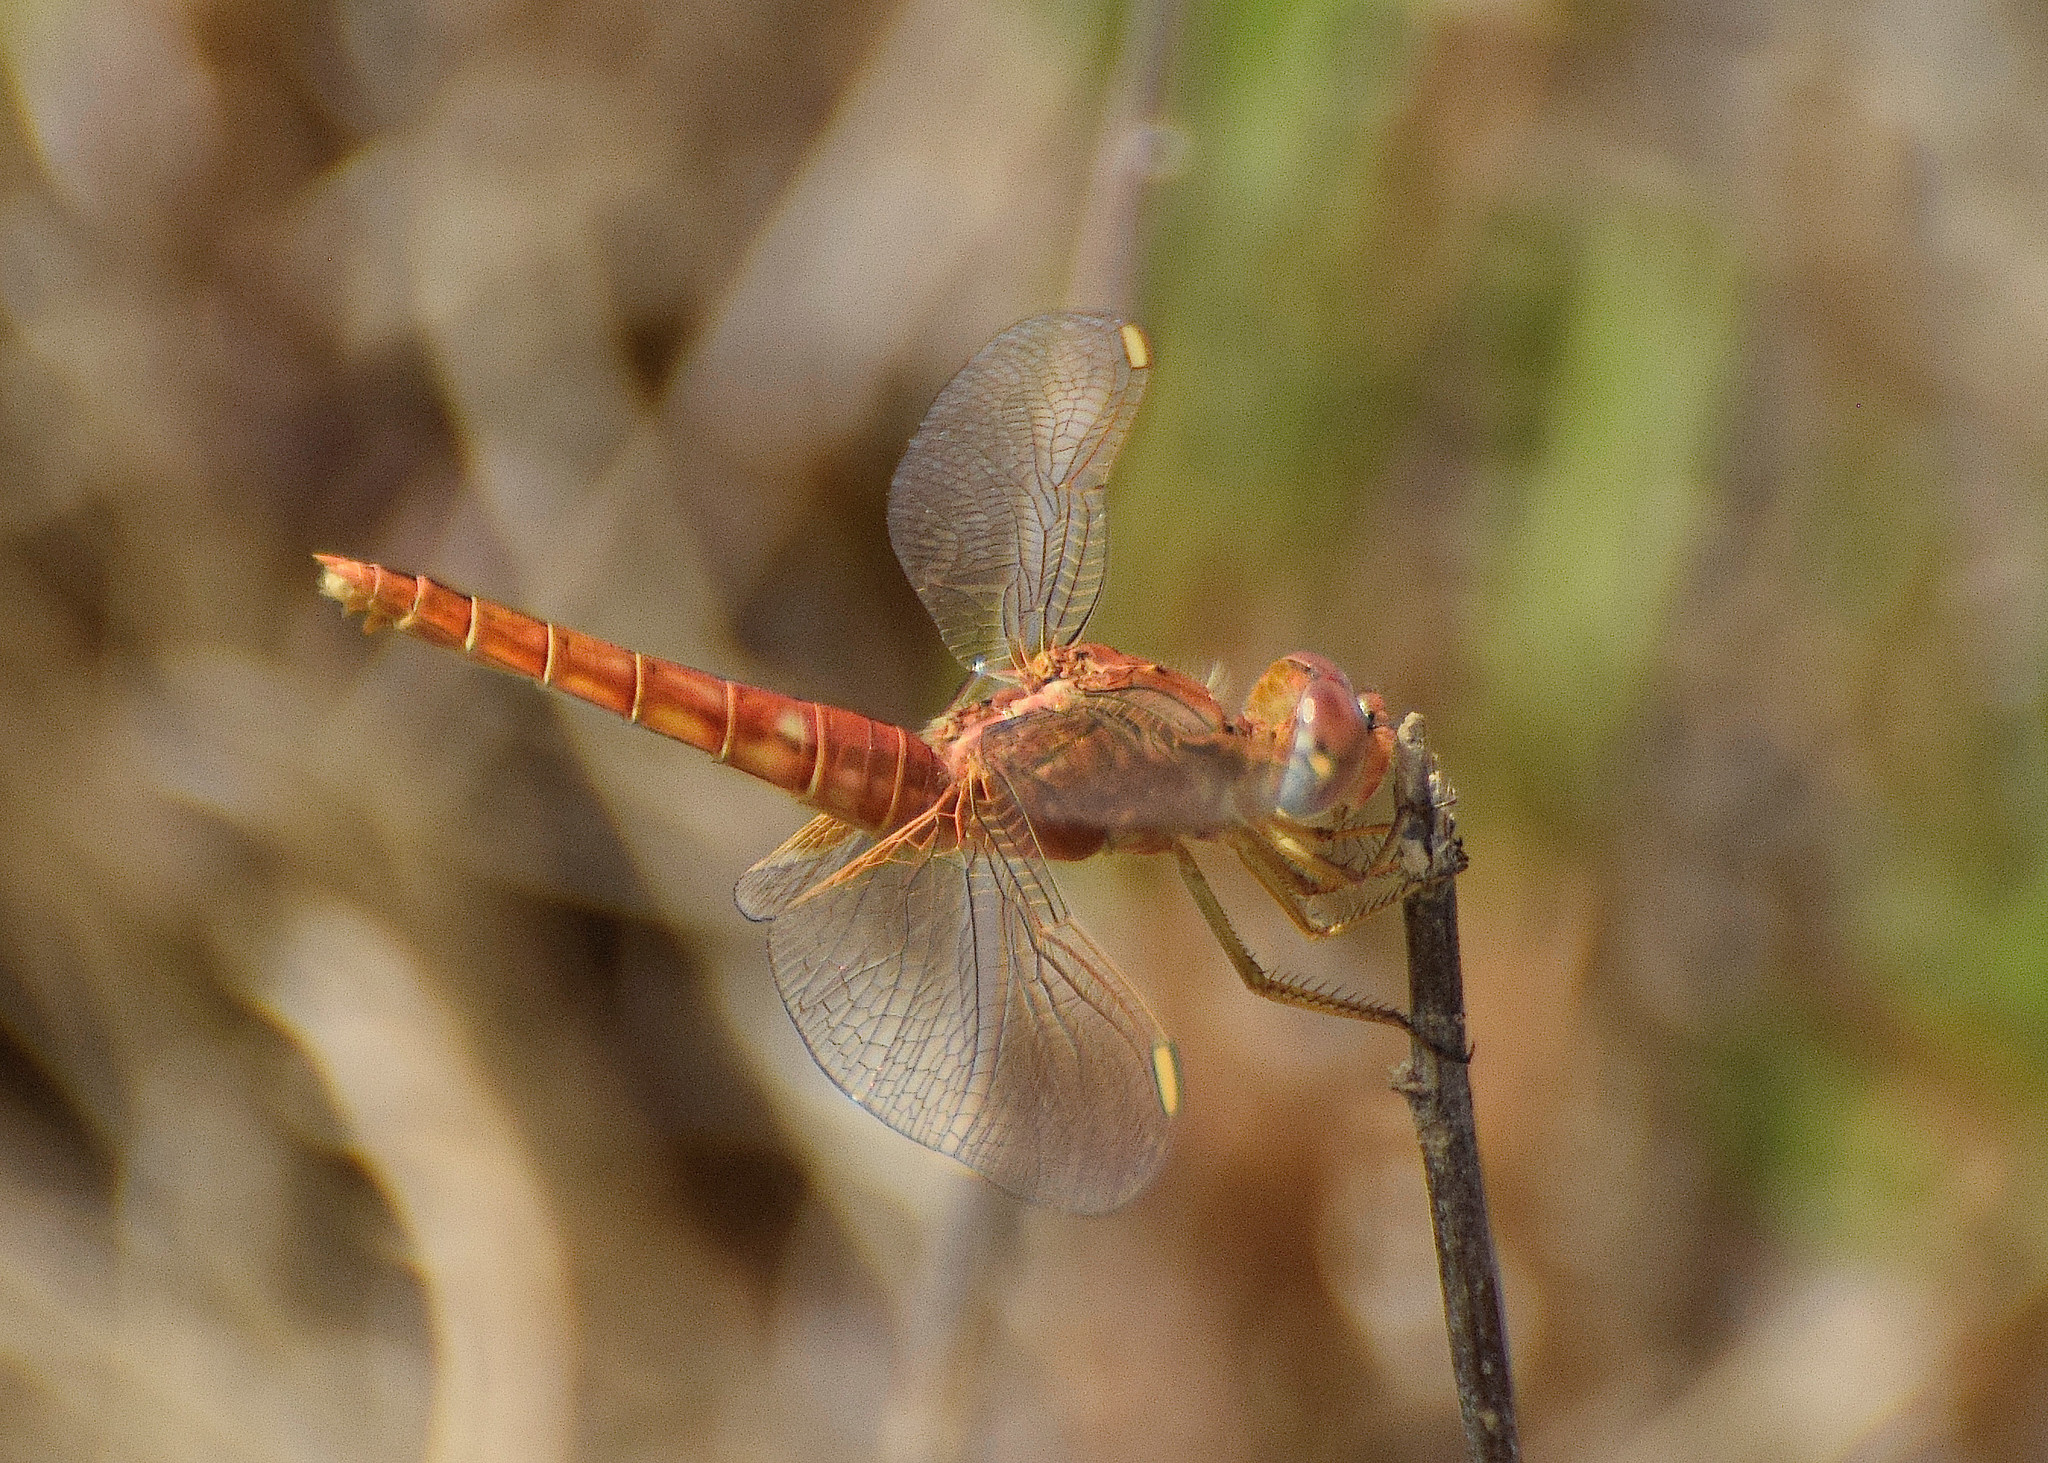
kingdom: Animalia
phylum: Arthropoda
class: Insecta
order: Odonata
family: Libellulidae
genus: Crocothemis
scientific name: Crocothemis erythraea
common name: Scarlet dragonfly
